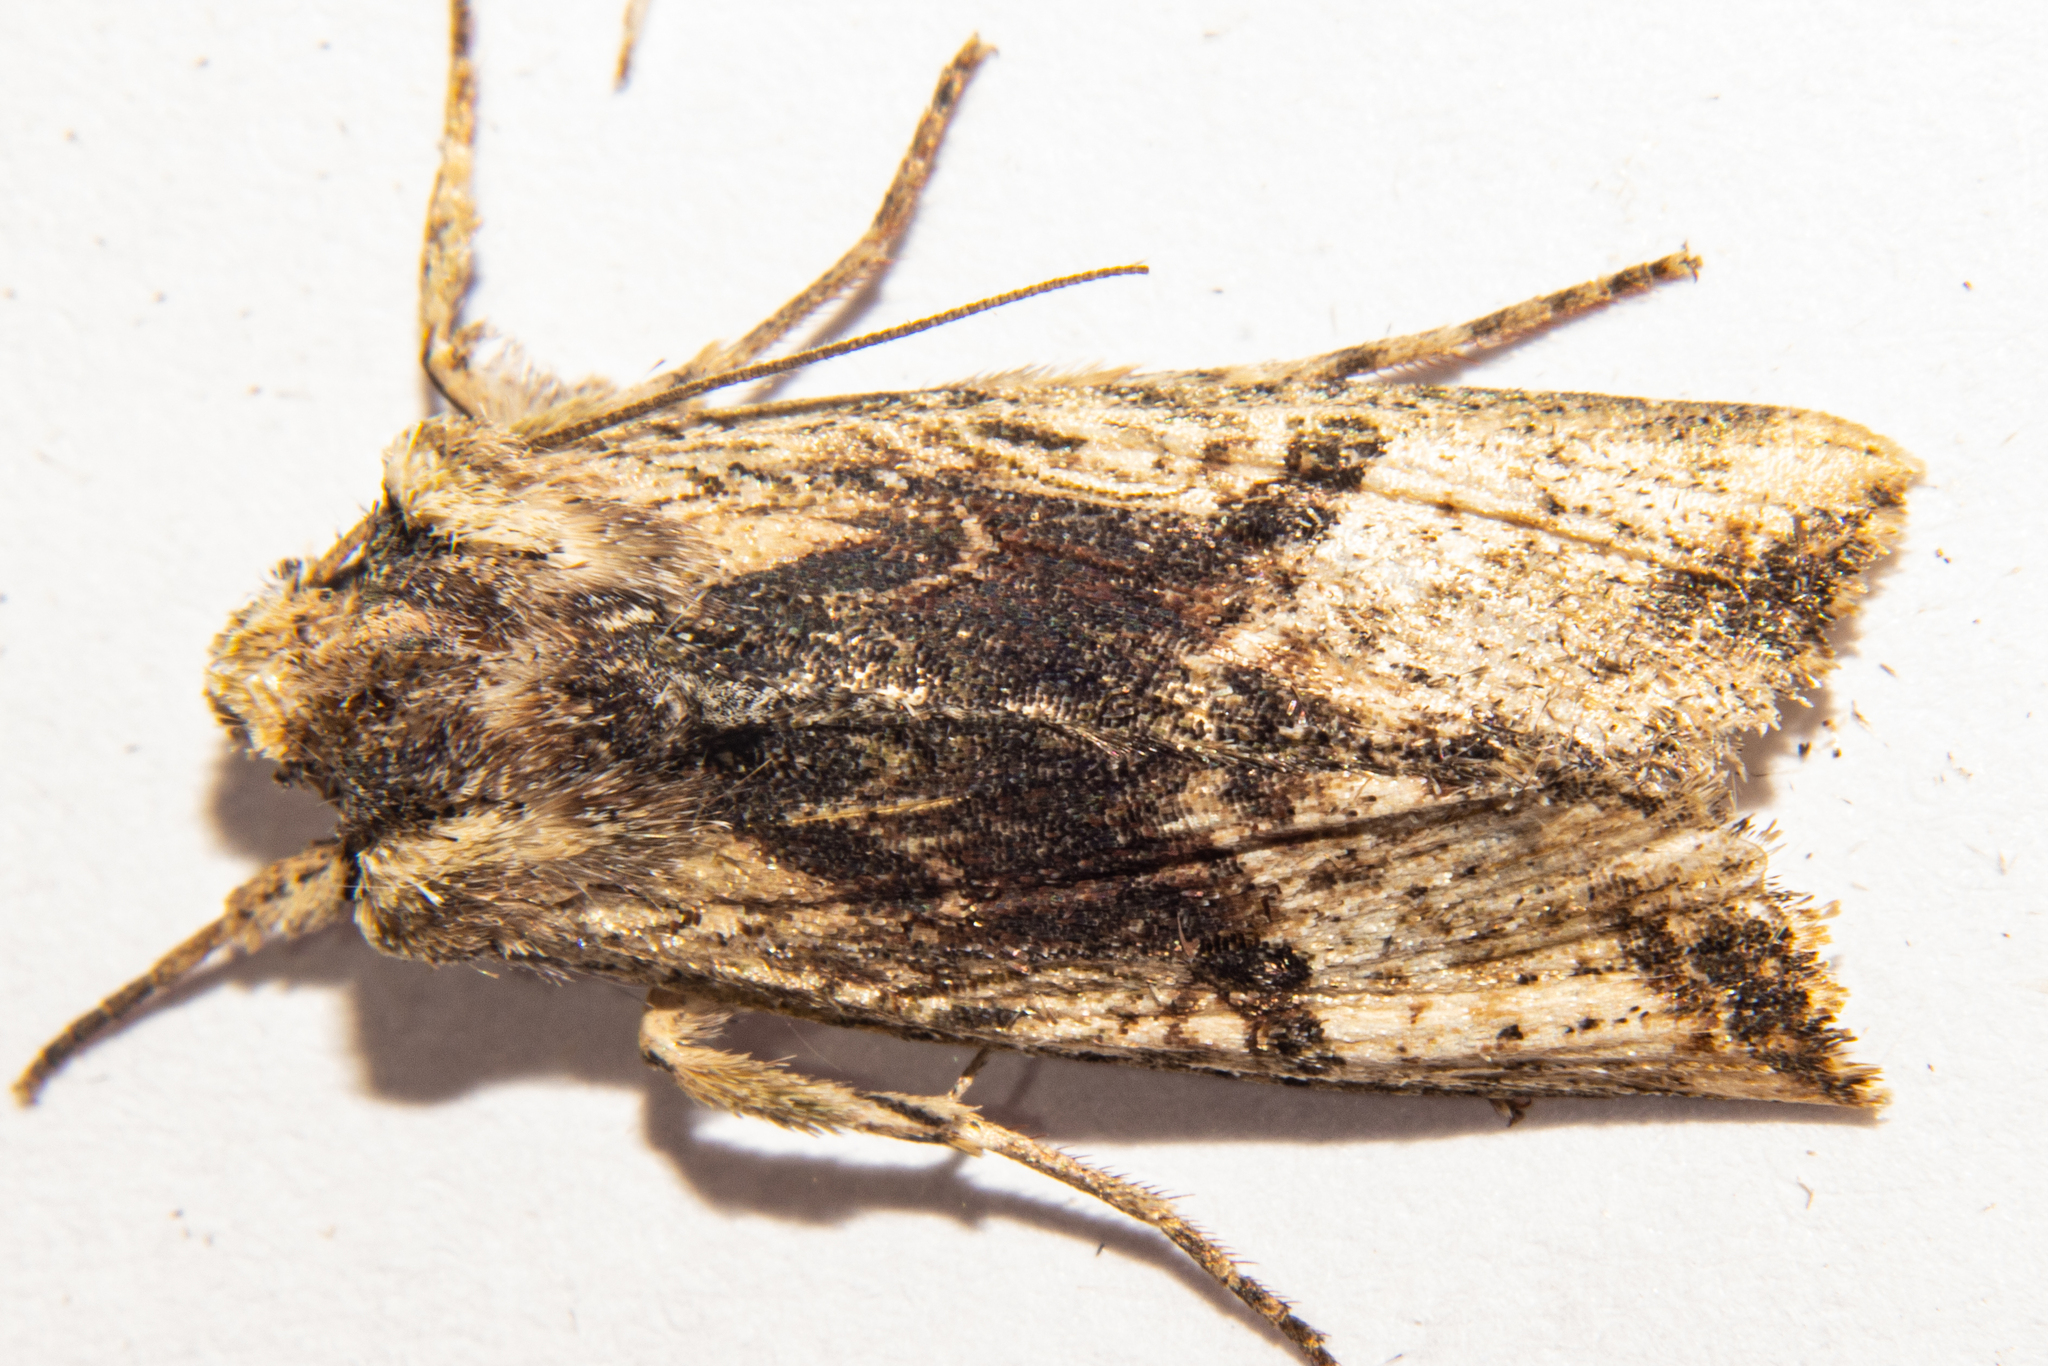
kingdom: Animalia
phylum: Arthropoda
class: Insecta
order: Lepidoptera
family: Noctuidae
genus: Meterana
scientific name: Meterana coeleno
